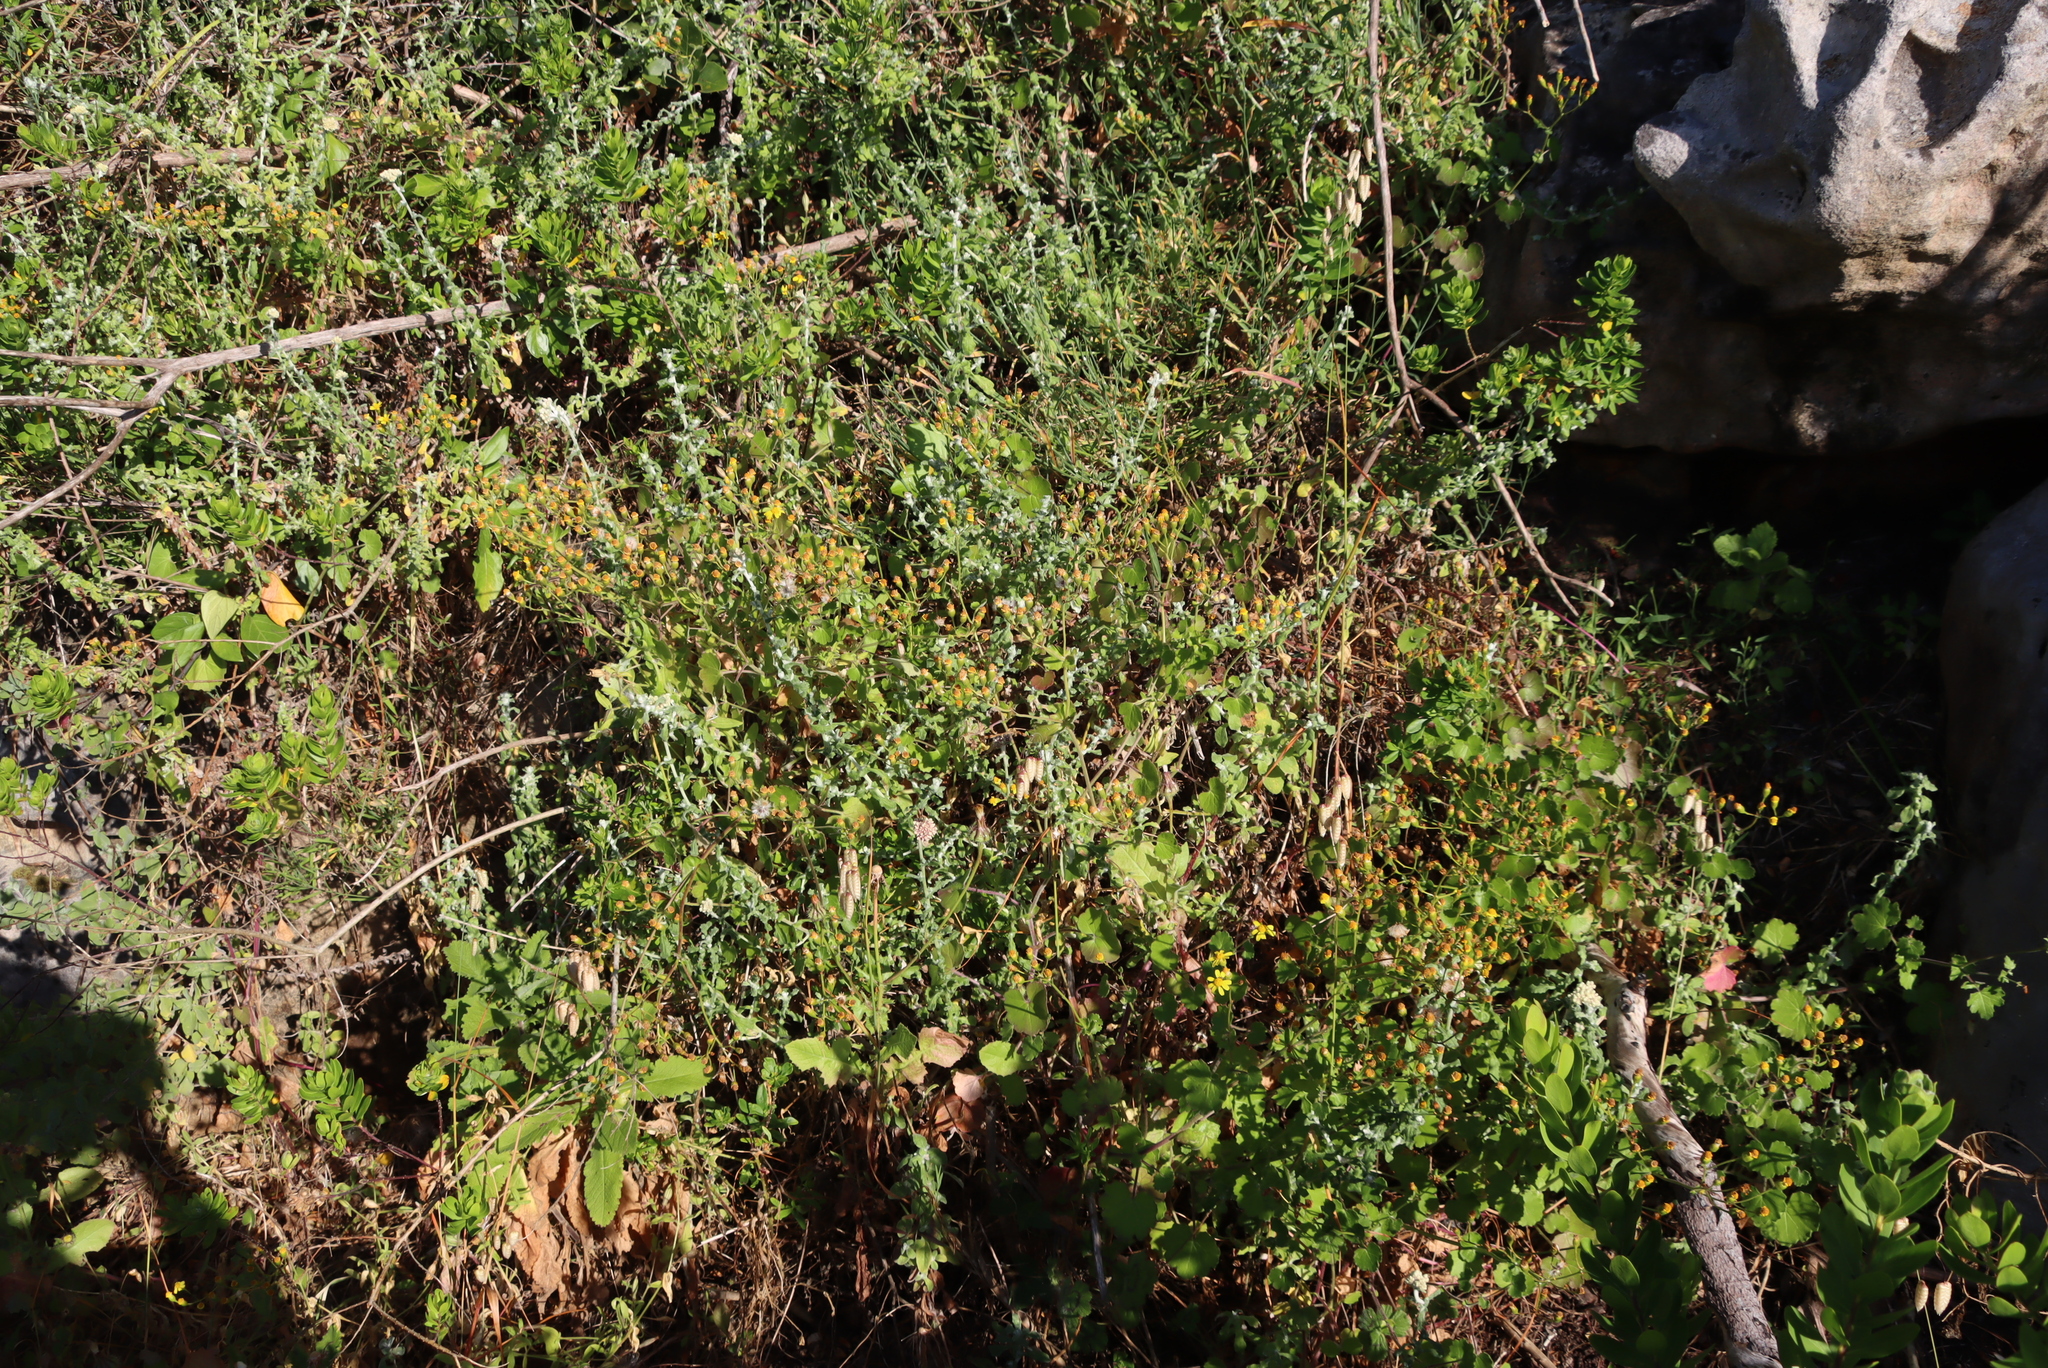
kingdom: Plantae
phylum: Tracheophyta
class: Magnoliopsida
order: Asterales
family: Asteraceae
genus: Cineraria
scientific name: Cineraria geifolia
